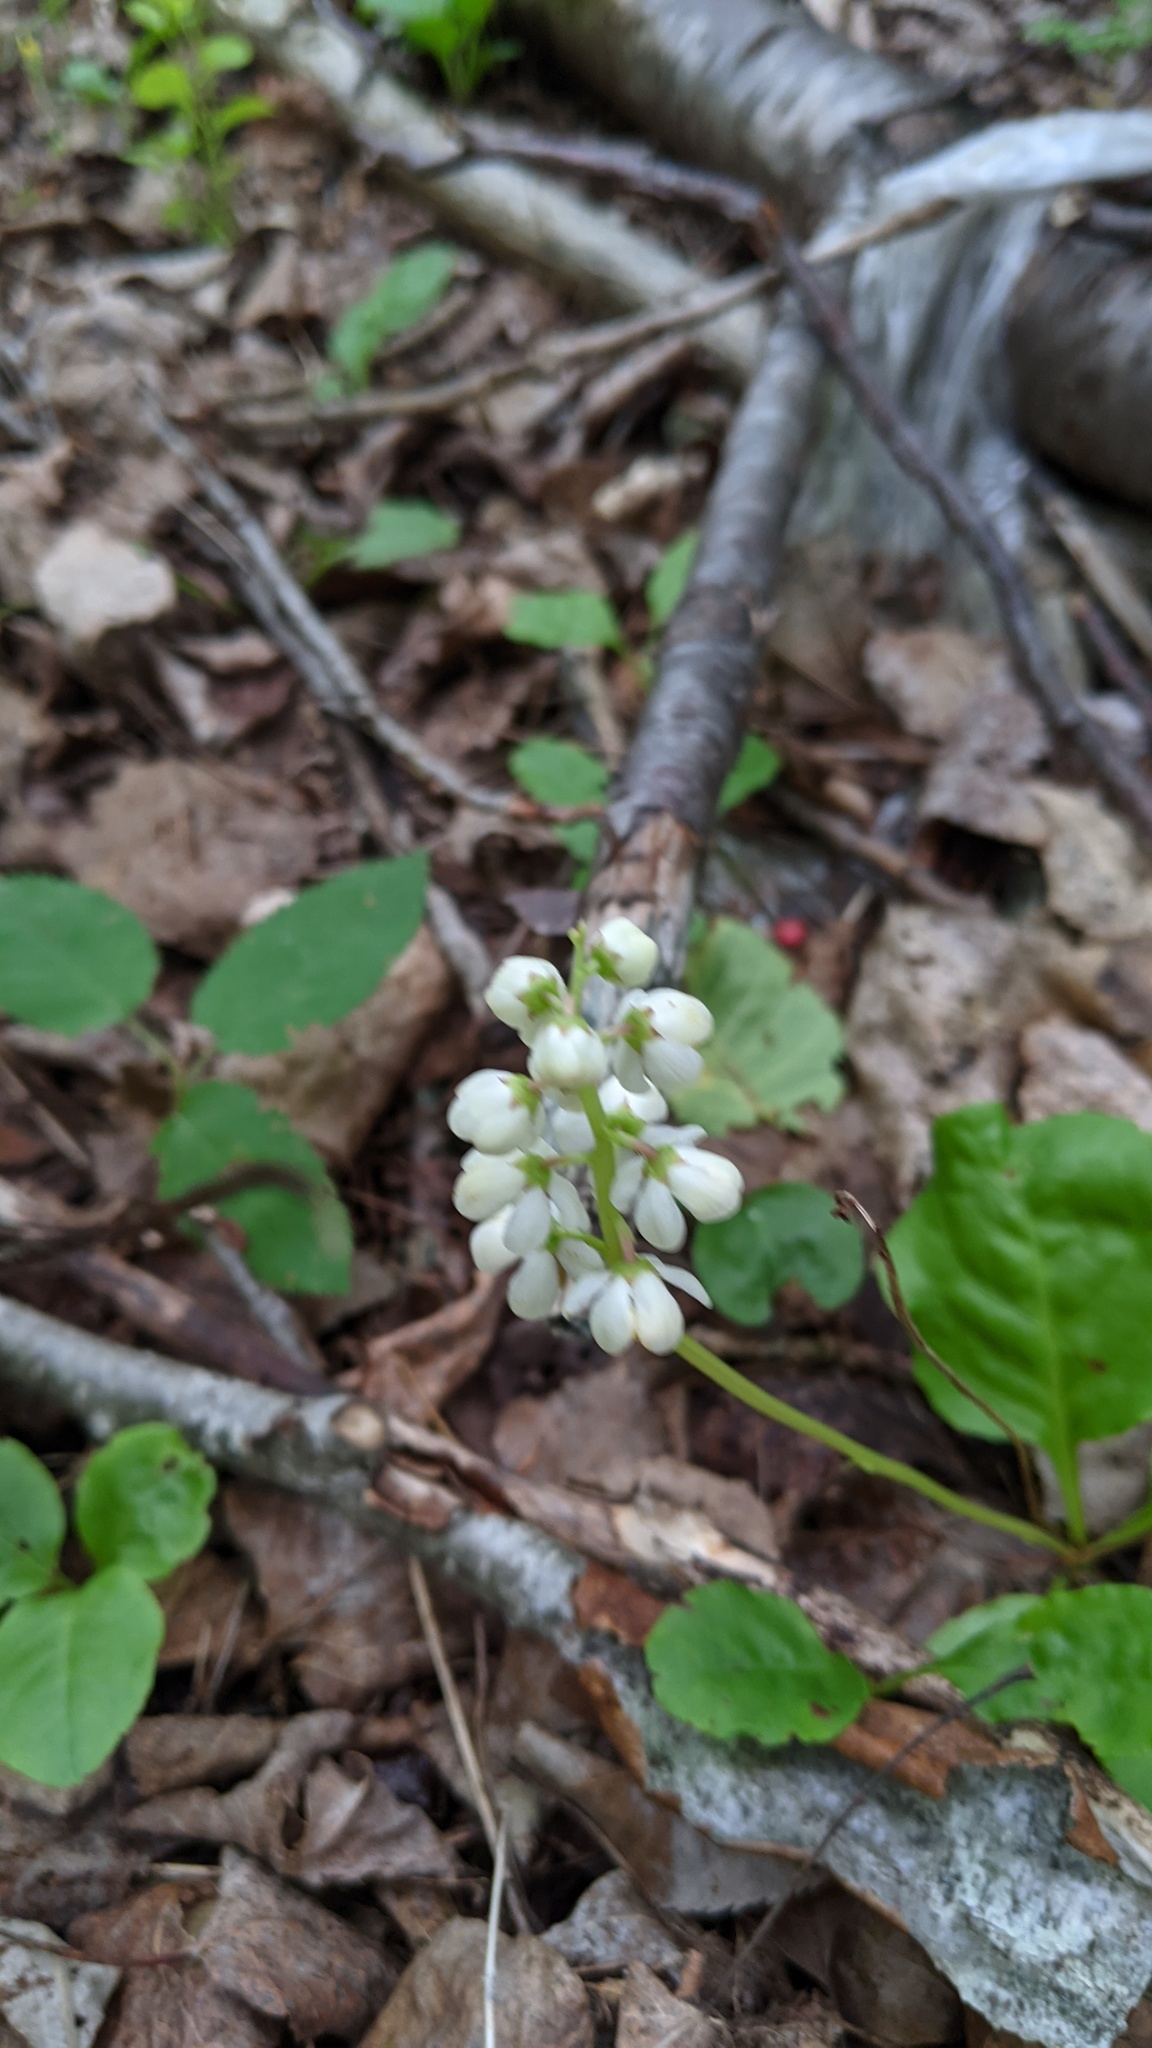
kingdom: Plantae
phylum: Tracheophyta
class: Magnoliopsida
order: Ericales
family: Ericaceae
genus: Pyrola
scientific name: Pyrola elliptica
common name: Shinleaf
